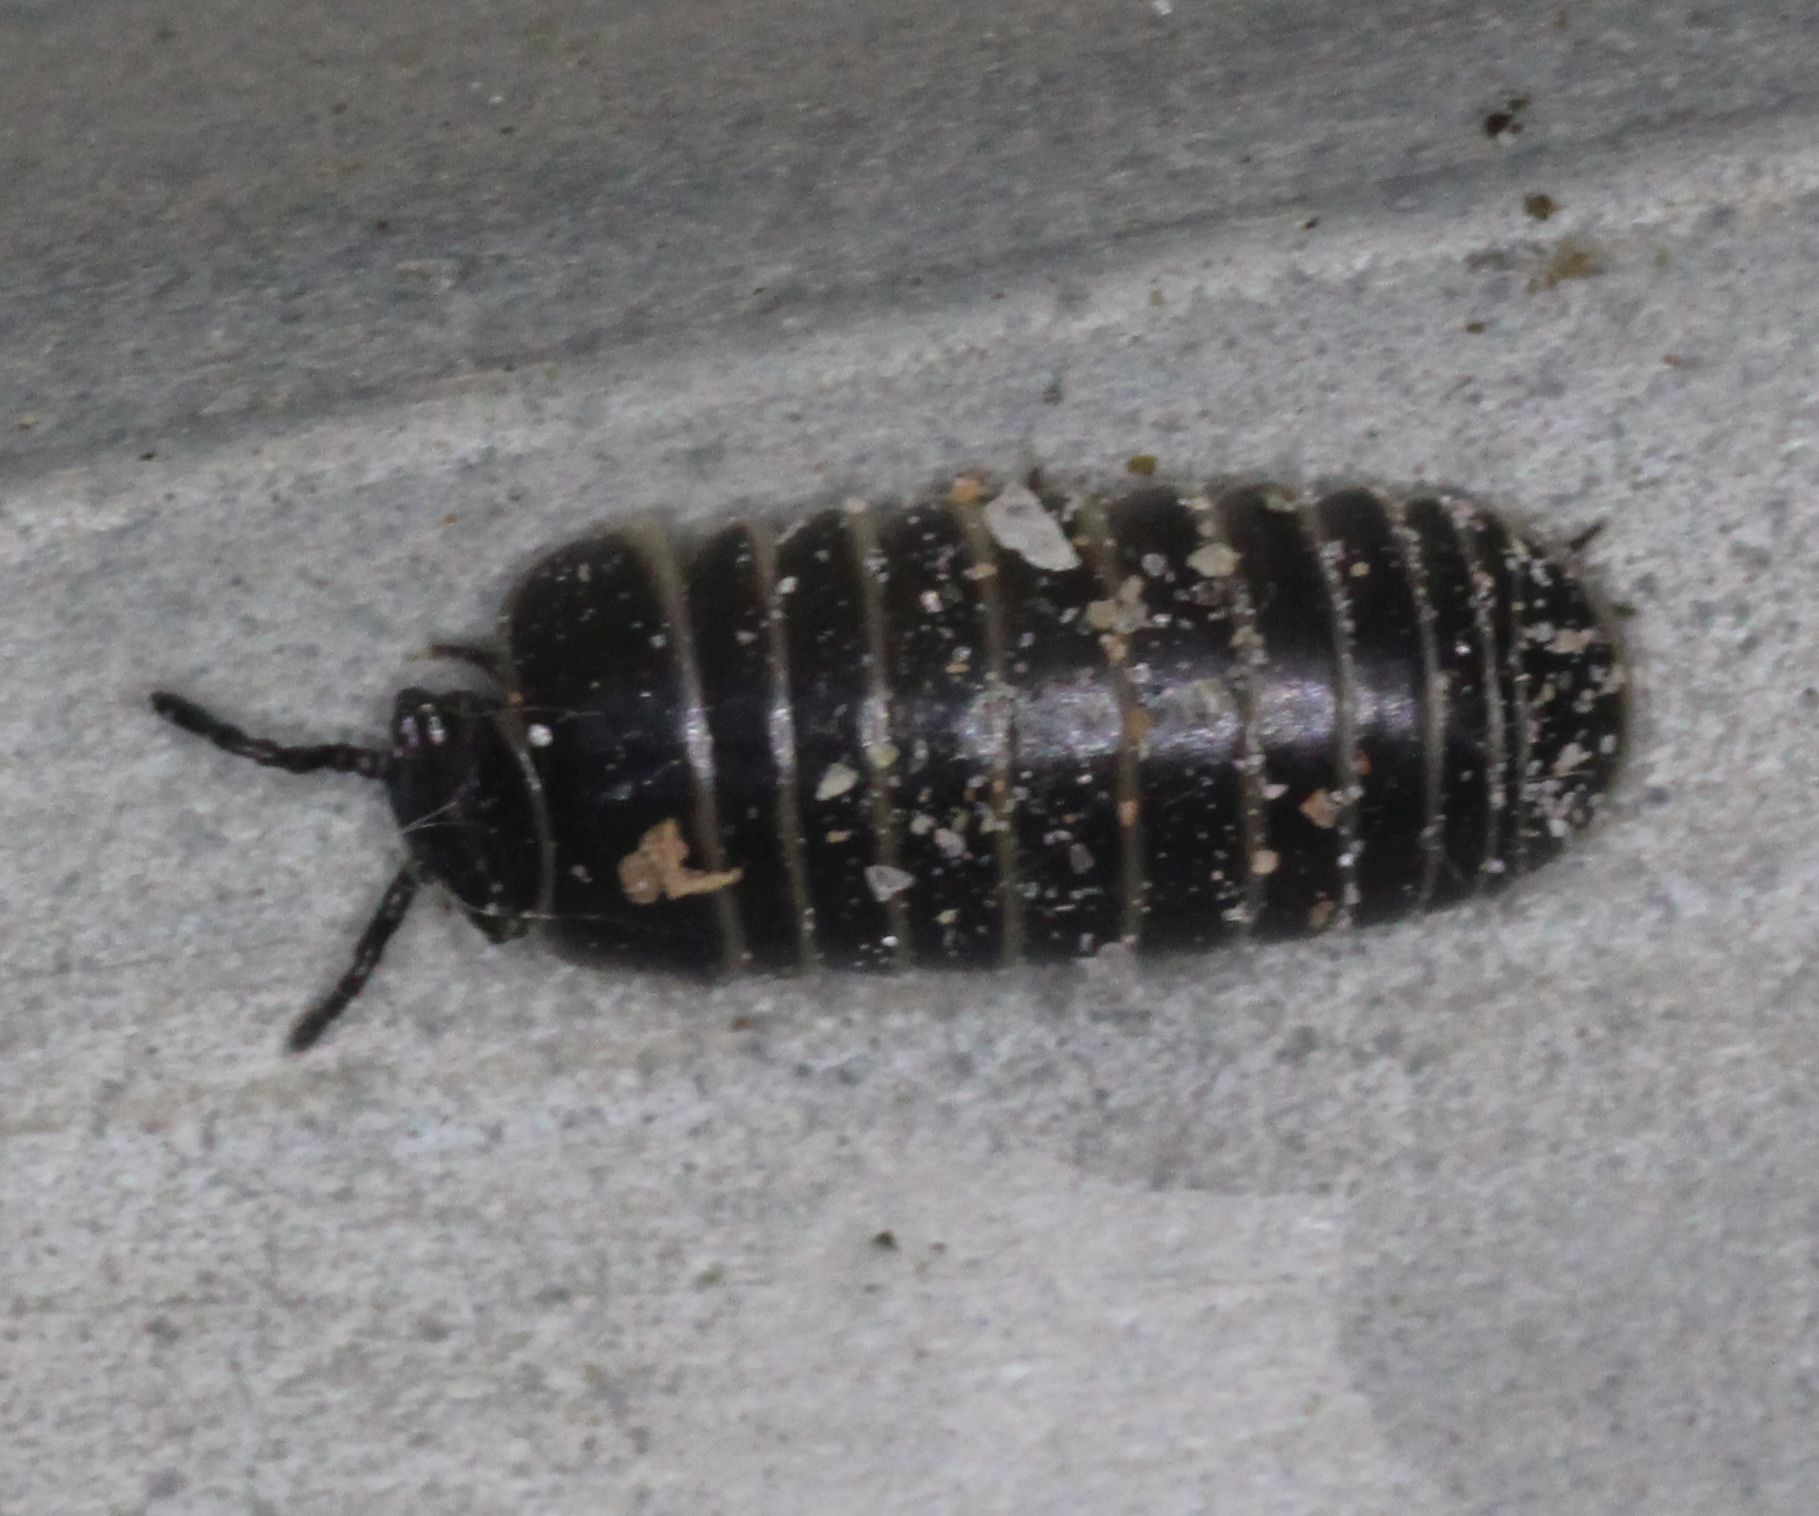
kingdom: Animalia
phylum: Arthropoda
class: Diplopoda
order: Glomerida
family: Glomeridae
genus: Glomeris
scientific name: Glomeris marginata
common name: Bordered pill millipede
